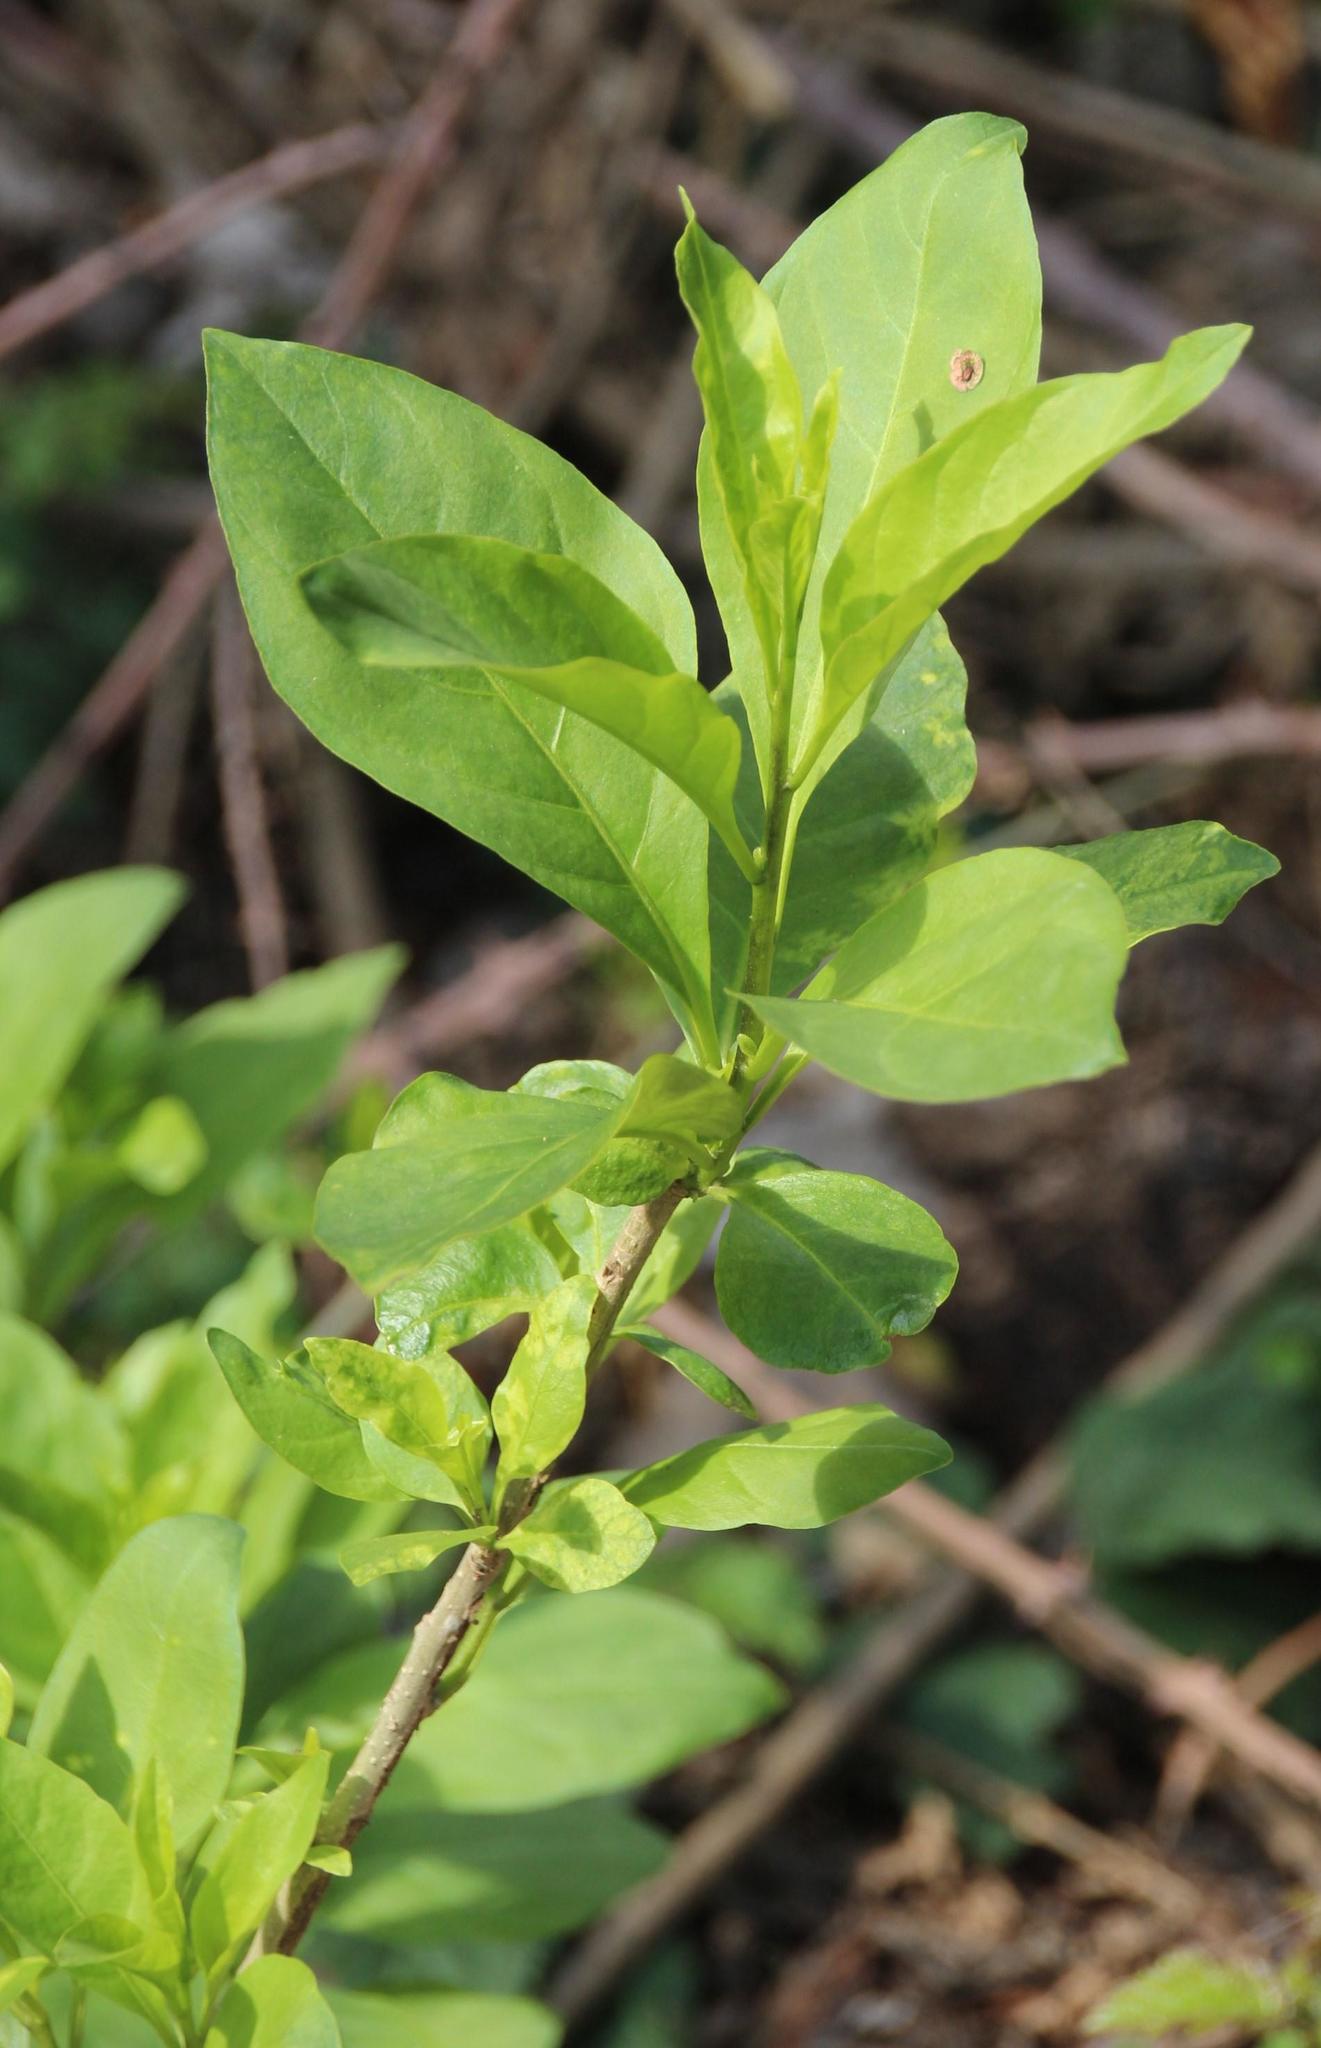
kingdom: Plantae
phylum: Tracheophyta
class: Magnoliopsida
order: Solanales
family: Solanaceae
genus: Cestrum
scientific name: Cestrum parqui
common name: Chilean cestrum
